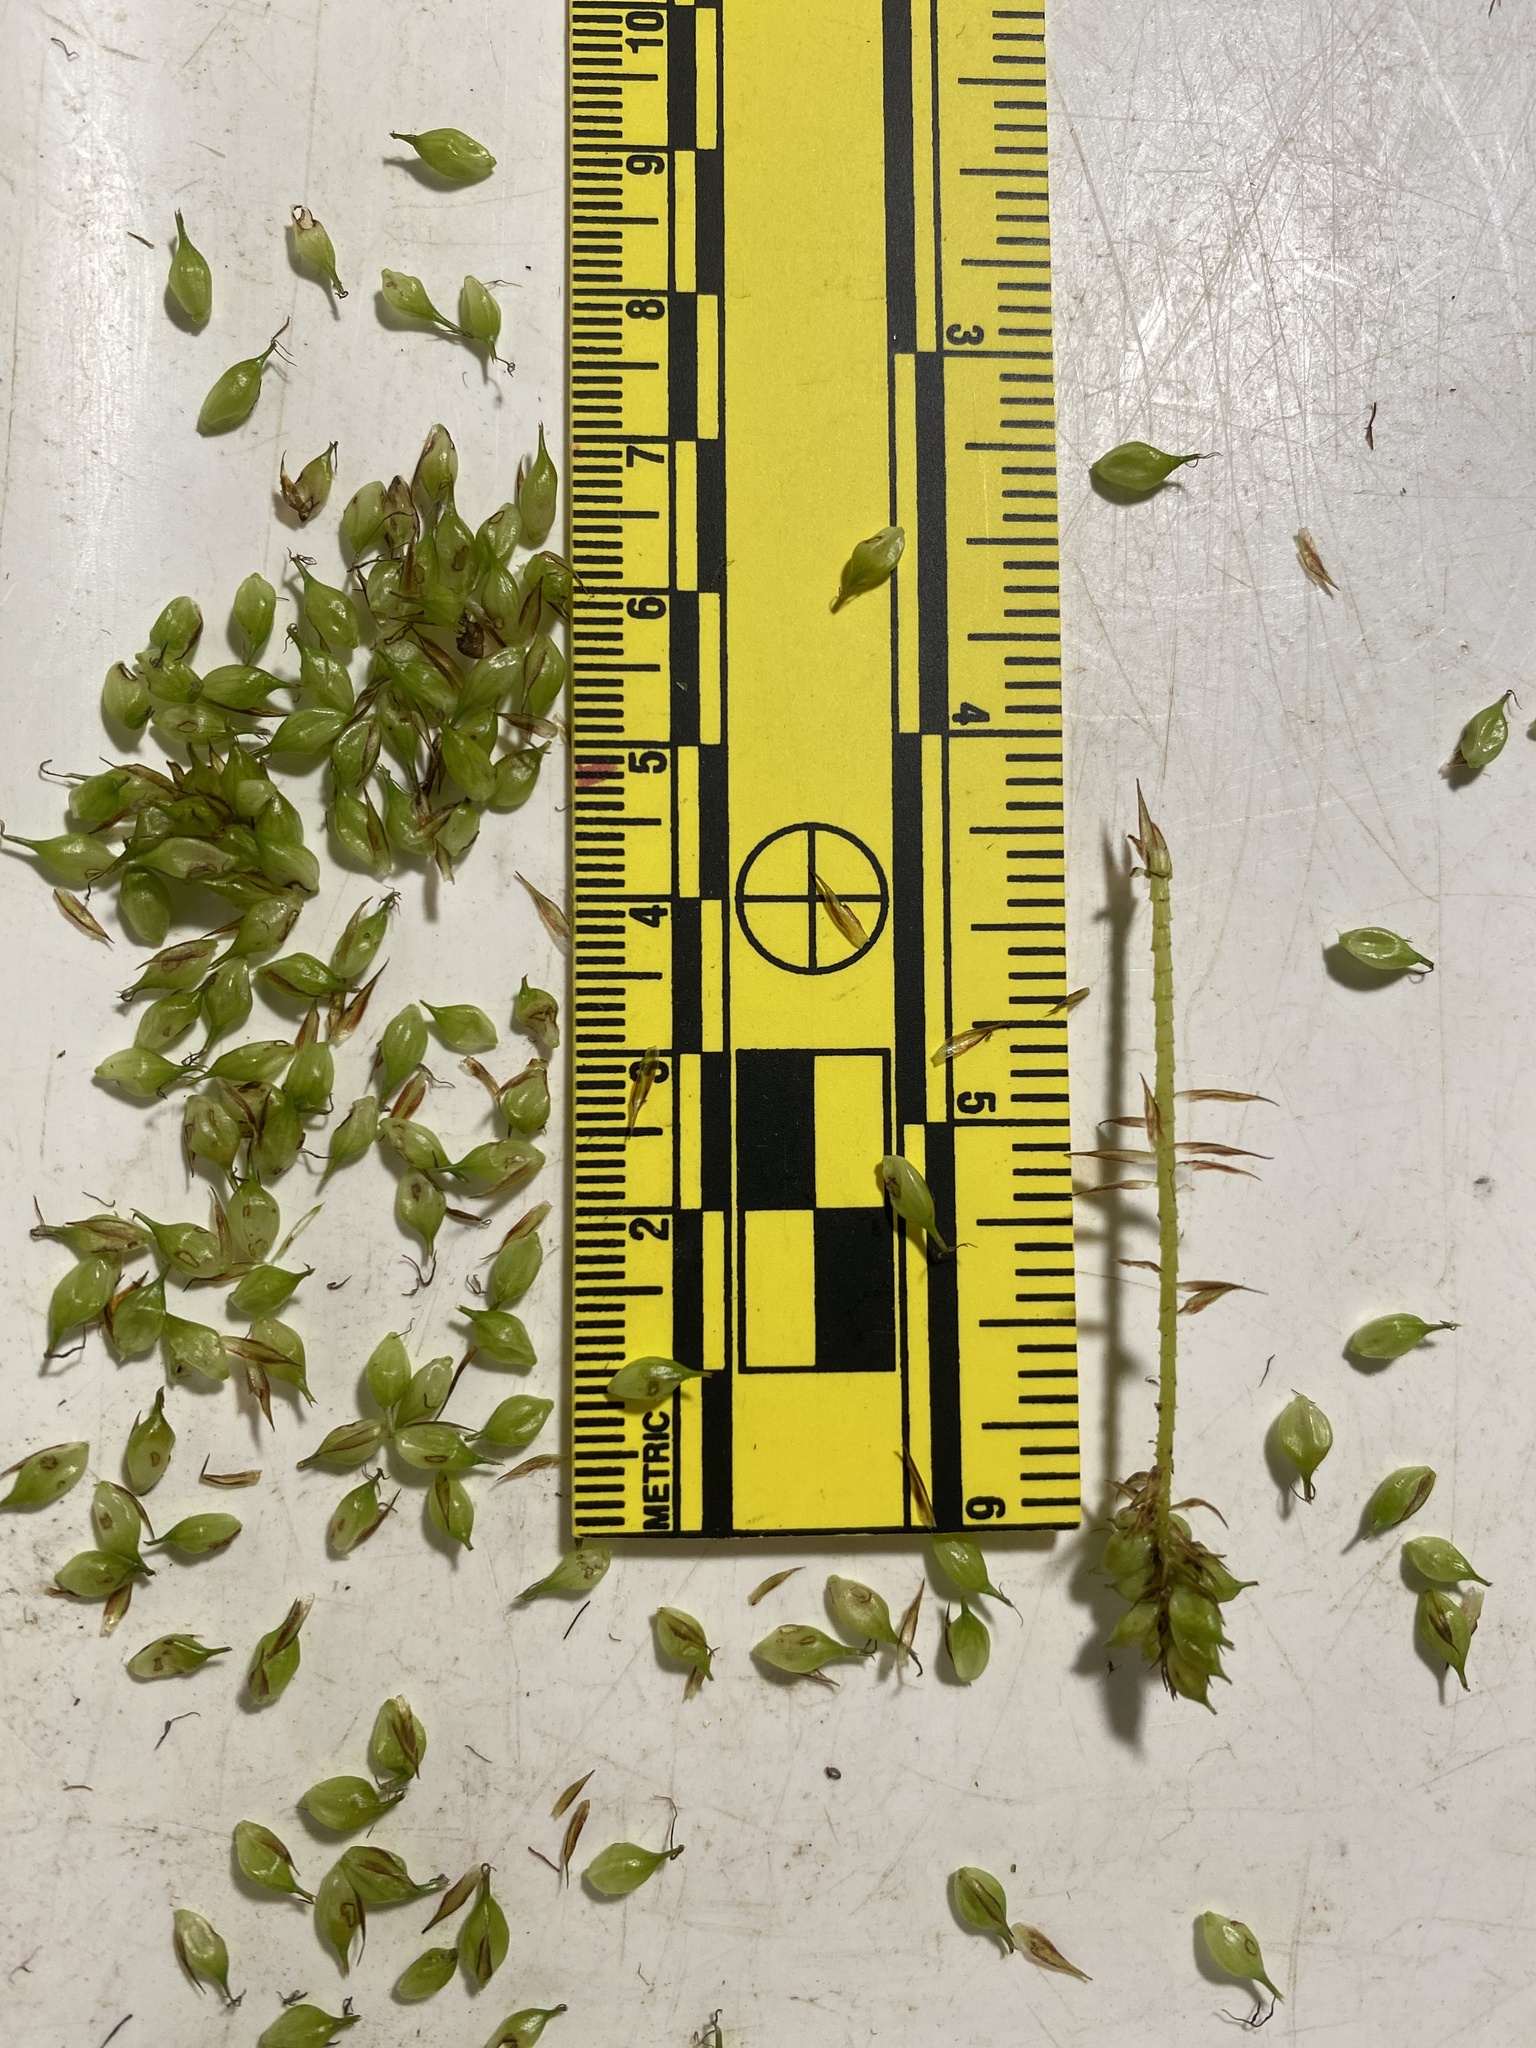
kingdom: Plantae
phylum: Tracheophyta
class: Liliopsida
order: Poales
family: Cyperaceae
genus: Carex
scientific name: Carex utriculata
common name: Beaked sedge
